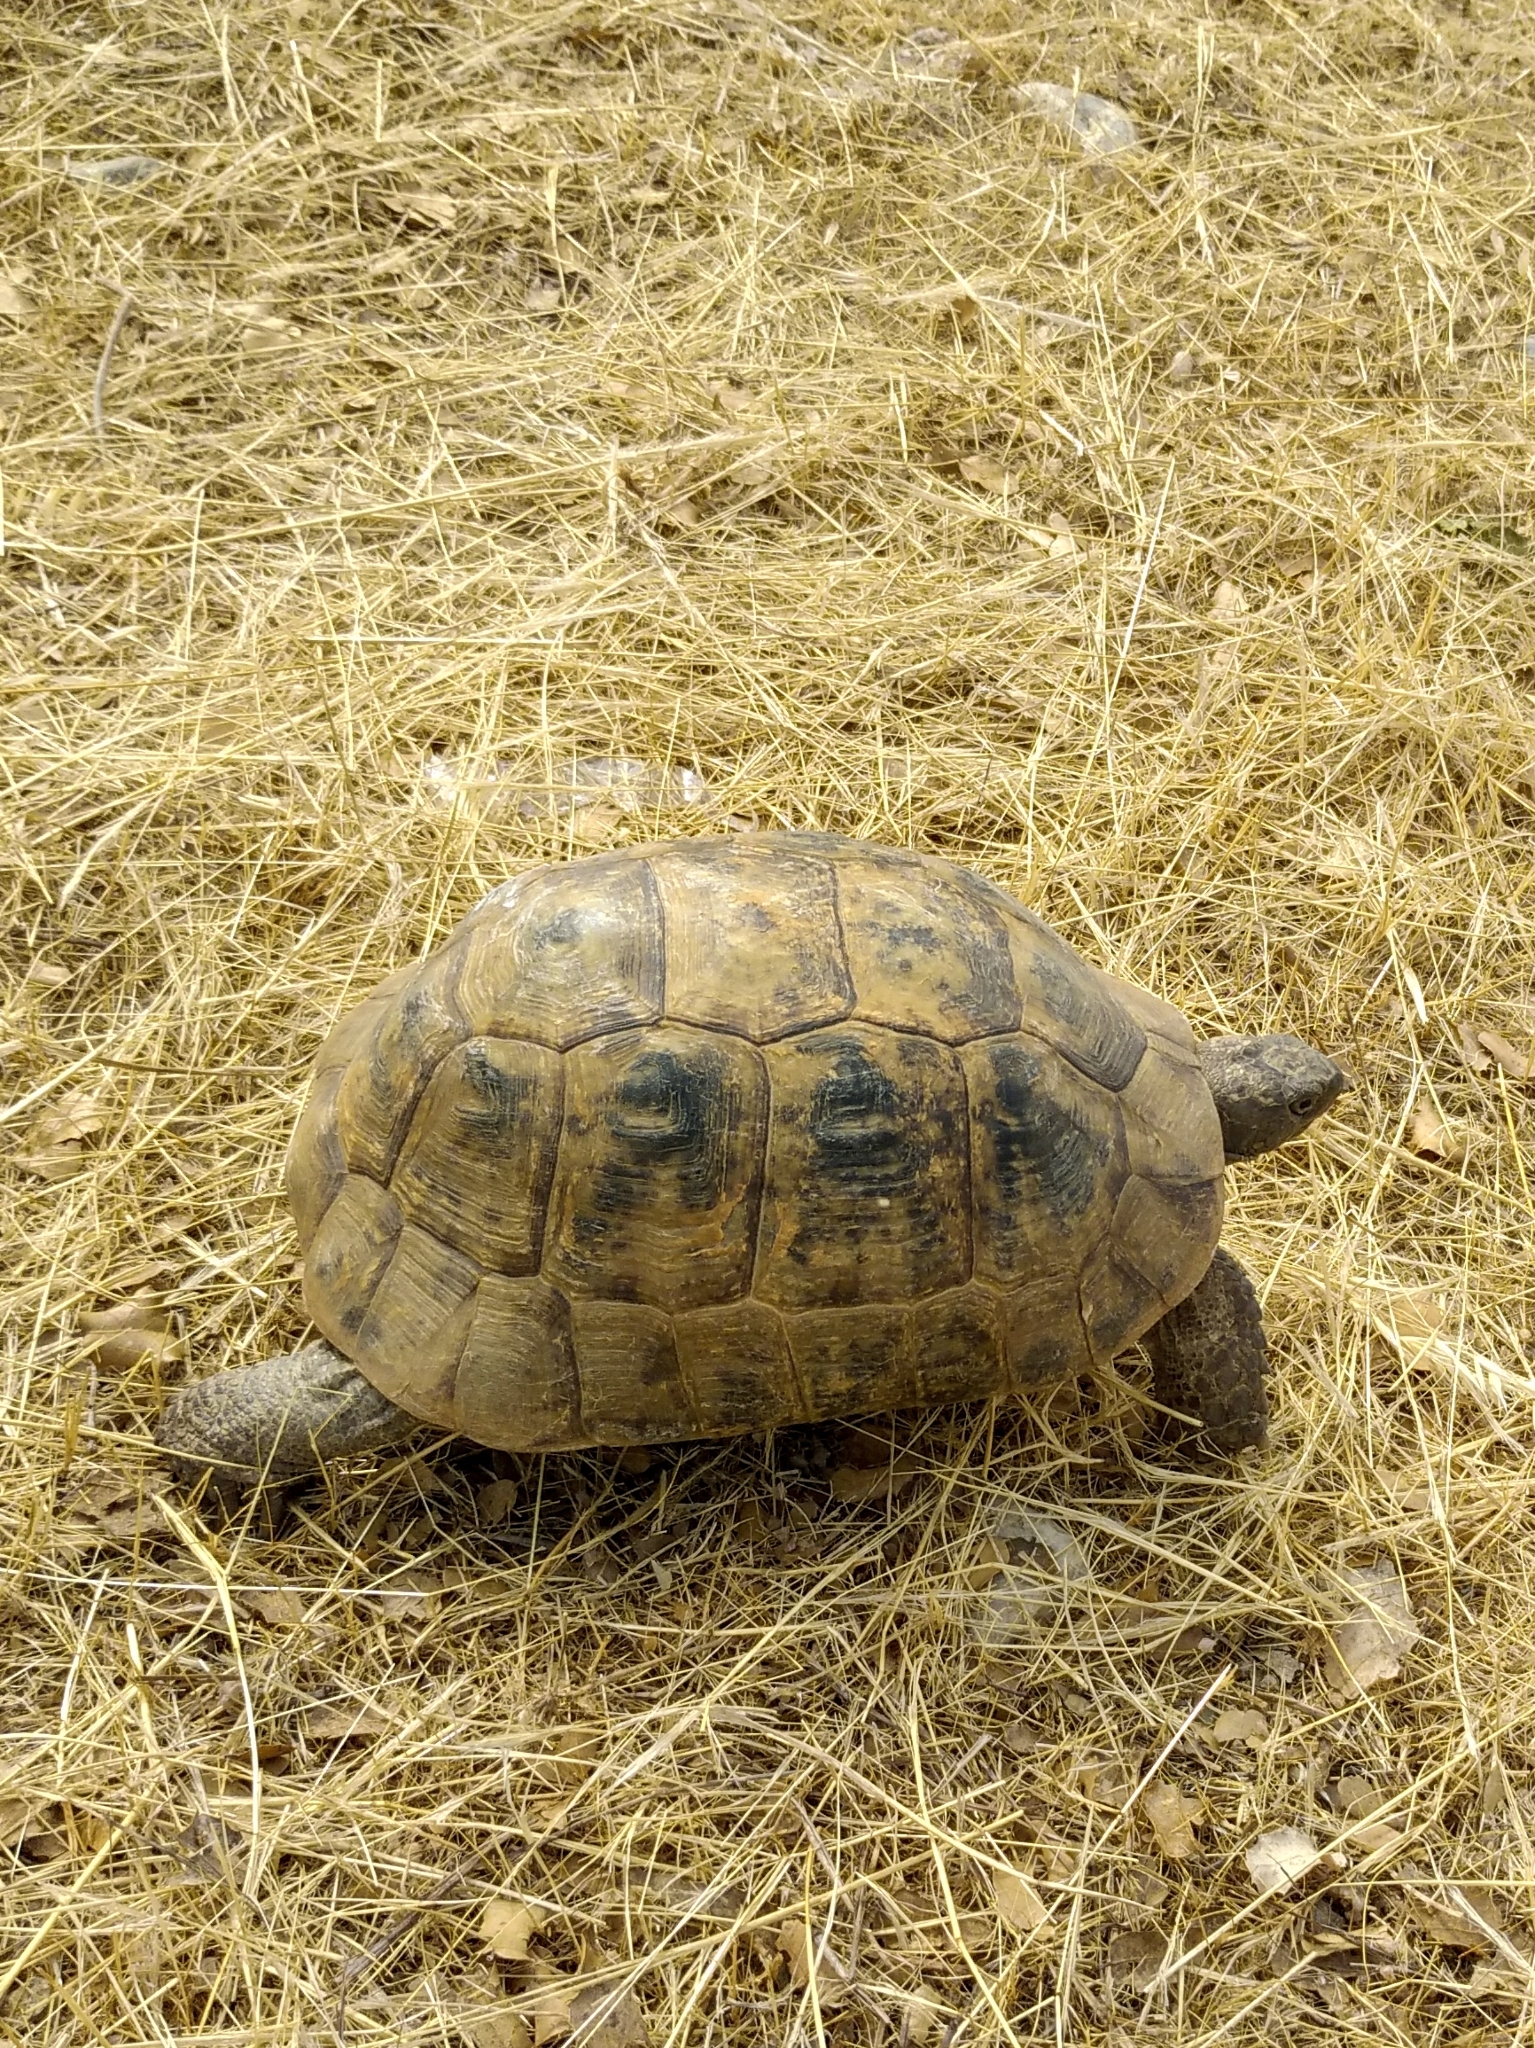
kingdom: Animalia
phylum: Chordata
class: Testudines
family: Testudinidae
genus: Testudo
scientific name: Testudo graeca
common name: Common tortoise
